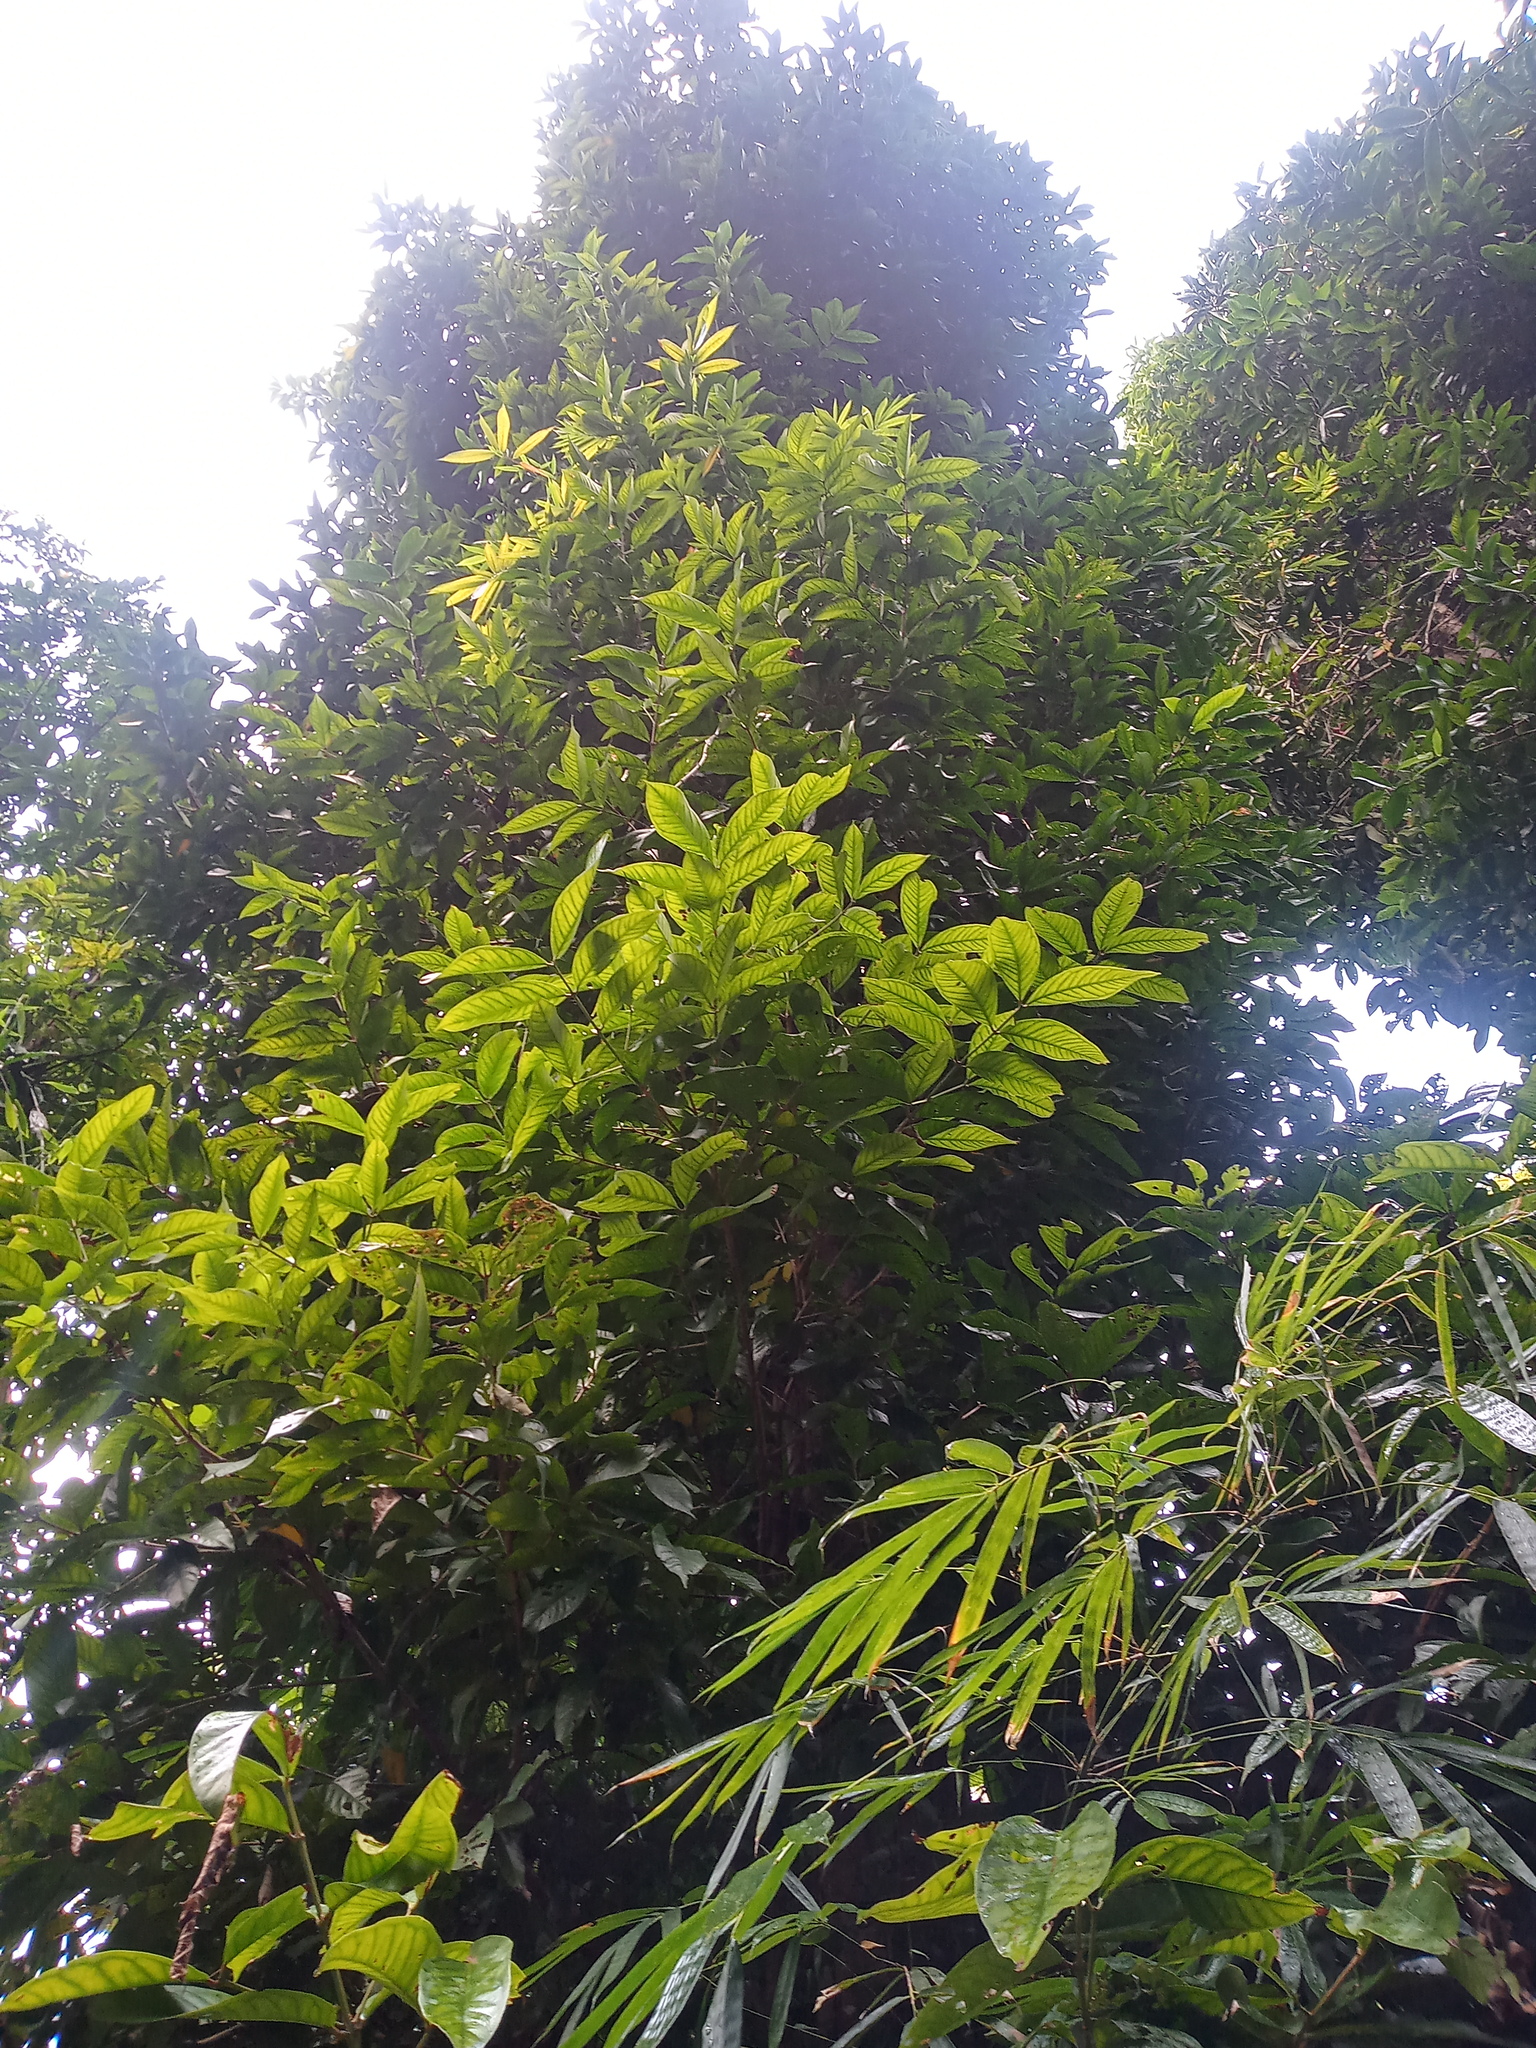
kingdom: Plantae
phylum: Tracheophyta
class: Magnoliopsida
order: Myrtales
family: Myrtaceae
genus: Syzygium
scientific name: Syzygium malaccense
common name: Malaysian apple
